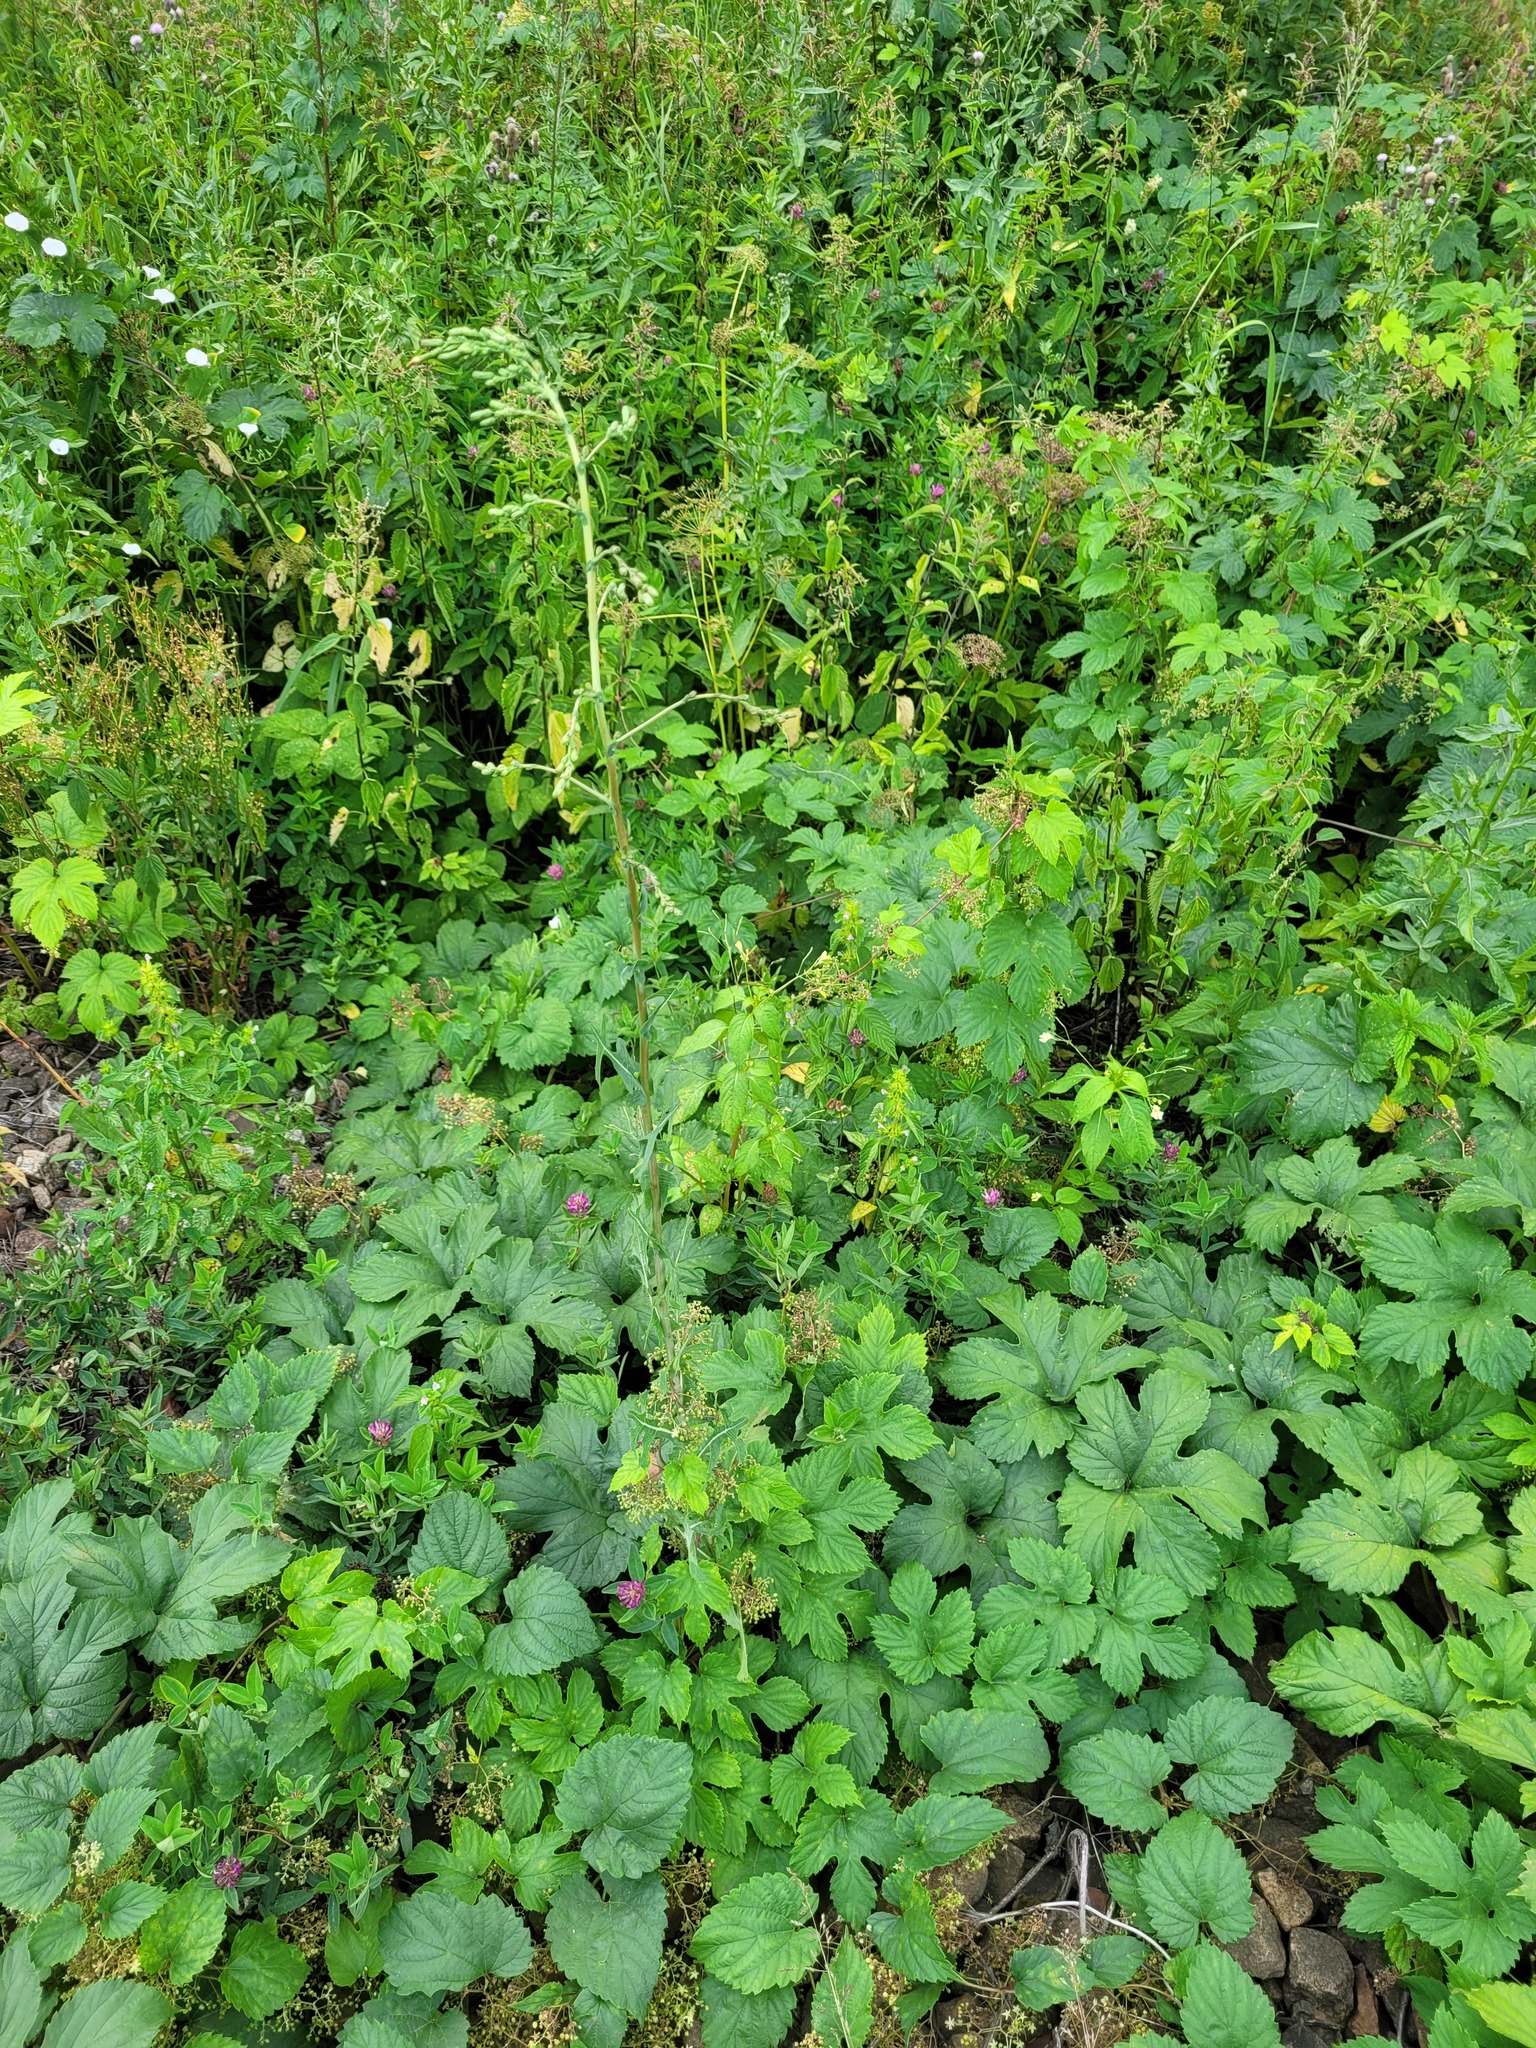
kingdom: Plantae
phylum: Tracheophyta
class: Magnoliopsida
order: Asterales
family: Asteraceae
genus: Lactuca
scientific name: Lactuca serriola
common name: Prickly lettuce
